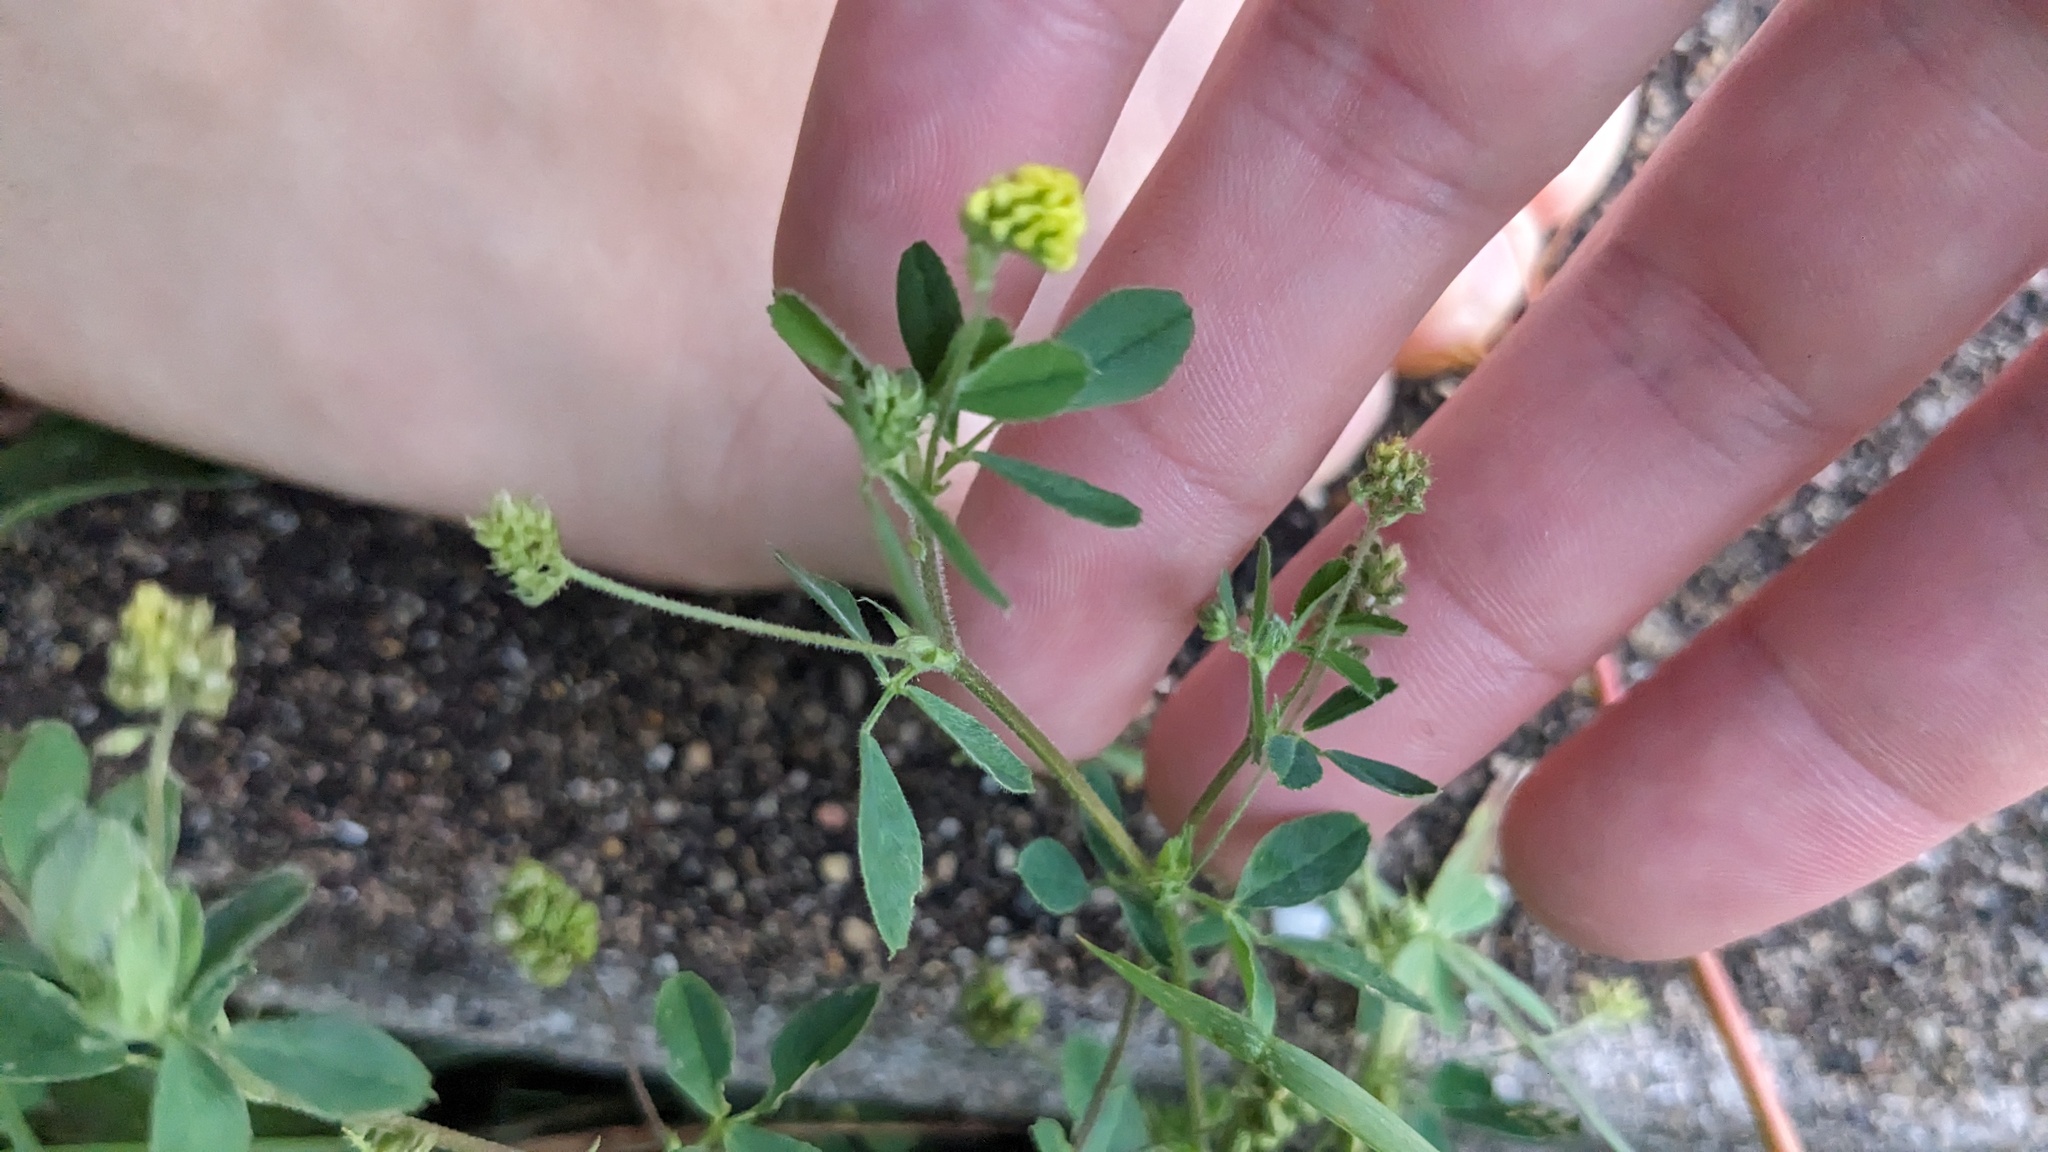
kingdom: Plantae
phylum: Tracheophyta
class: Magnoliopsida
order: Fabales
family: Fabaceae
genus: Medicago
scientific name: Medicago lupulina
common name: Black medick
